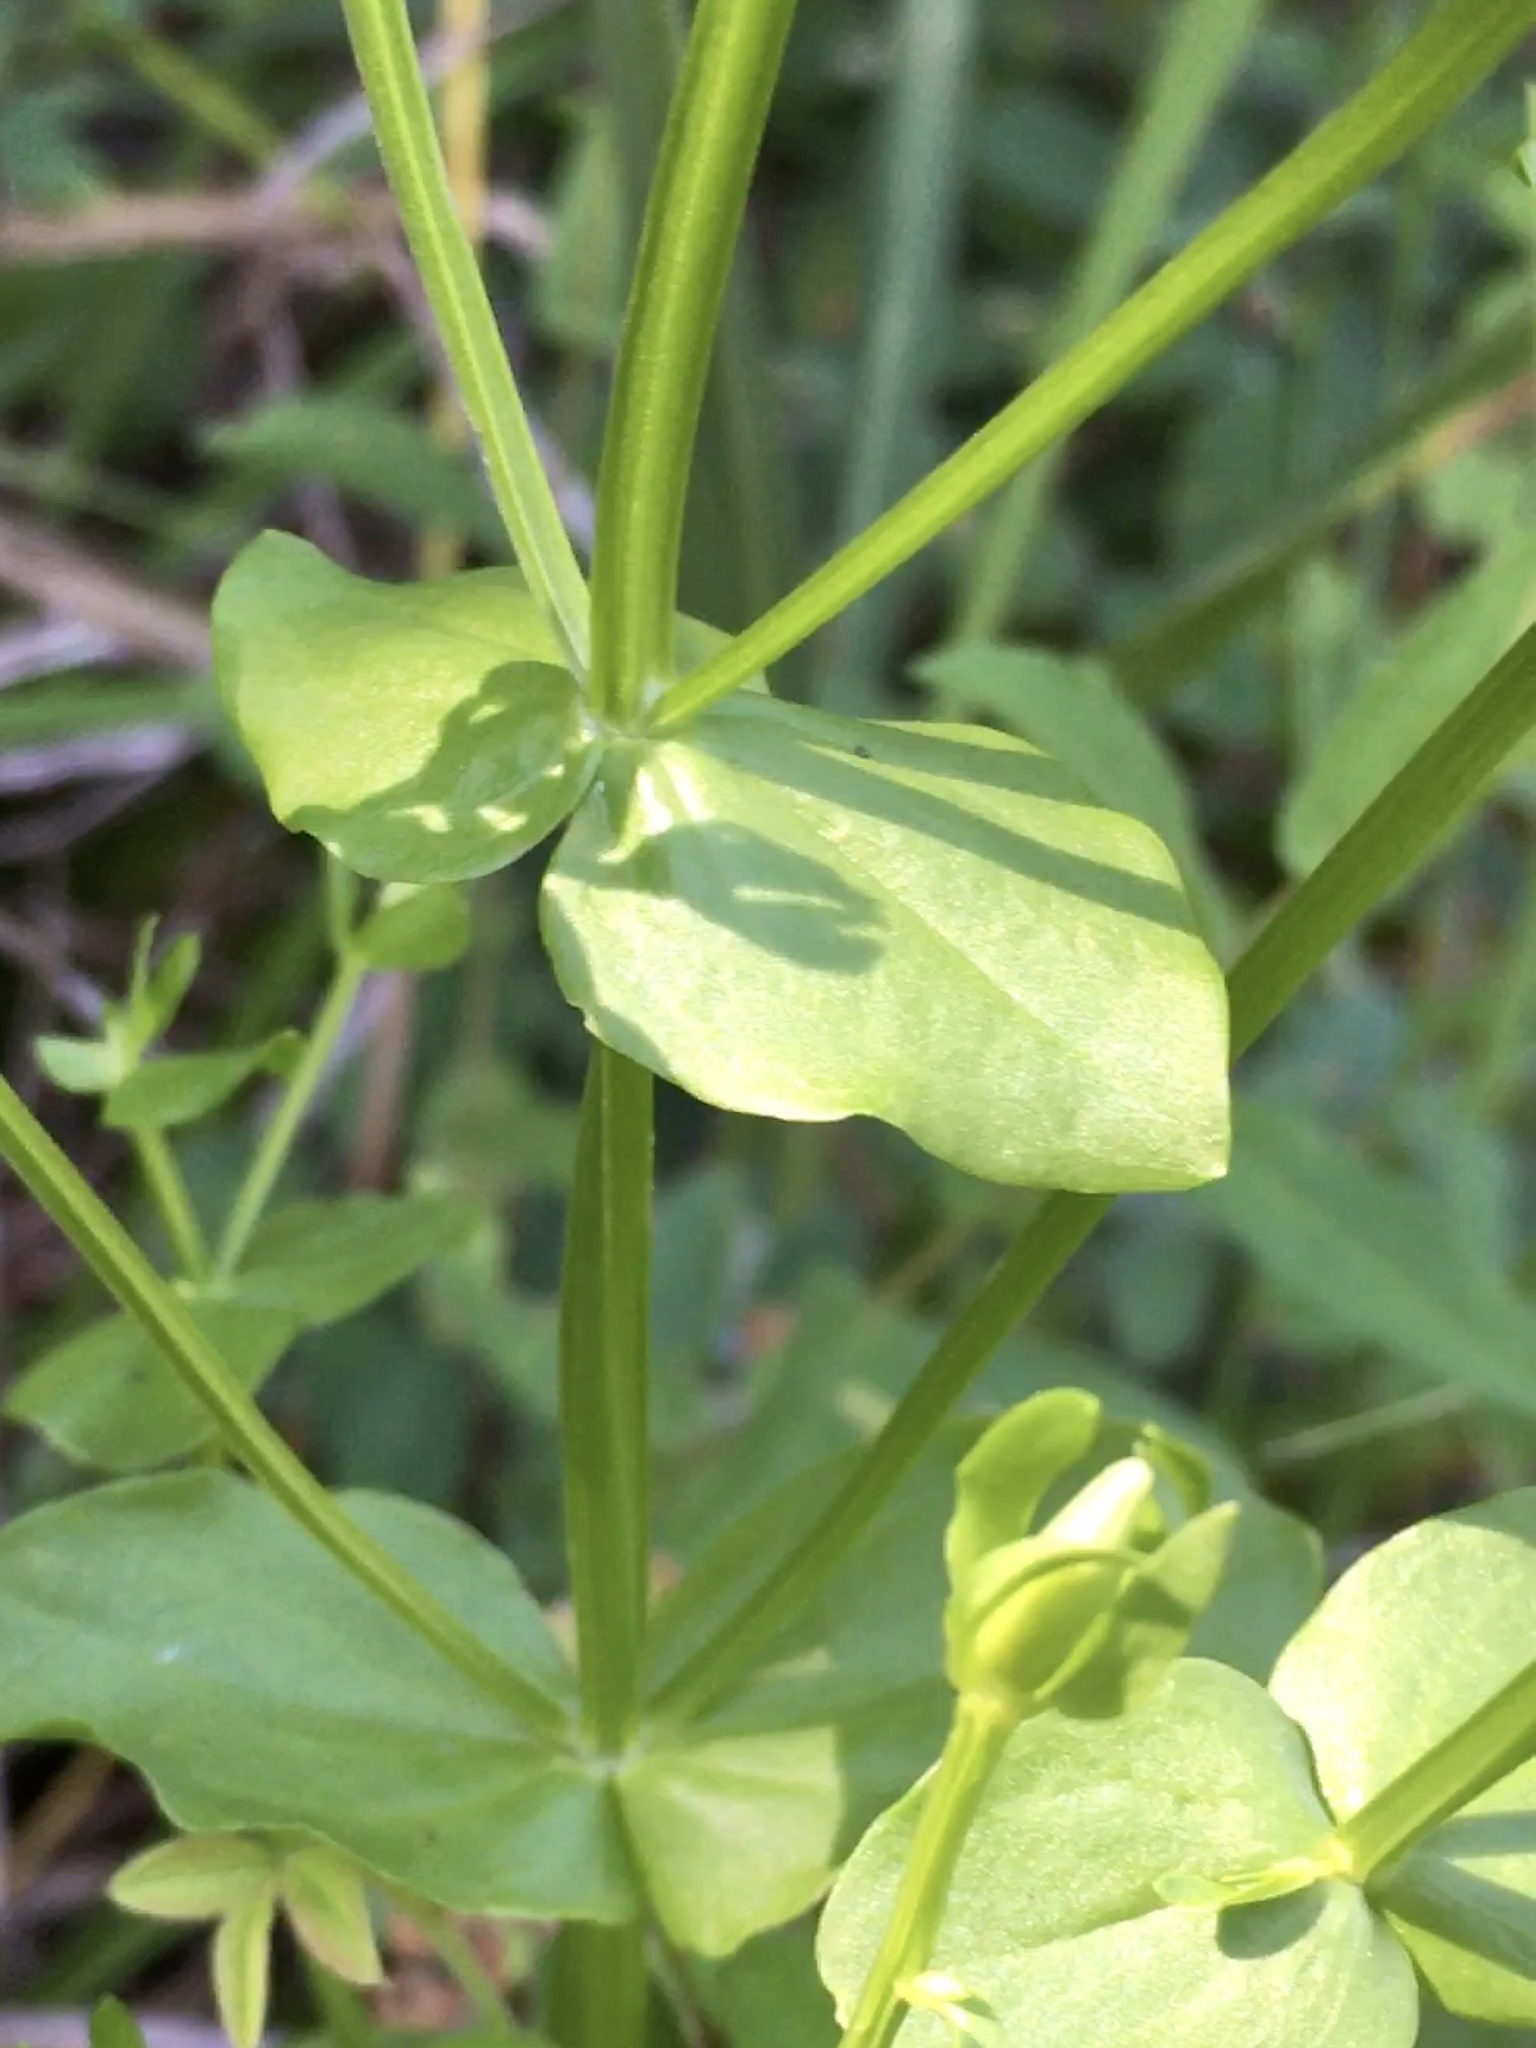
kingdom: Plantae
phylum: Tracheophyta
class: Magnoliopsida
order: Gentianales
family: Gentianaceae
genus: Sabatia
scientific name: Sabatia angularis
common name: Rose-pink
